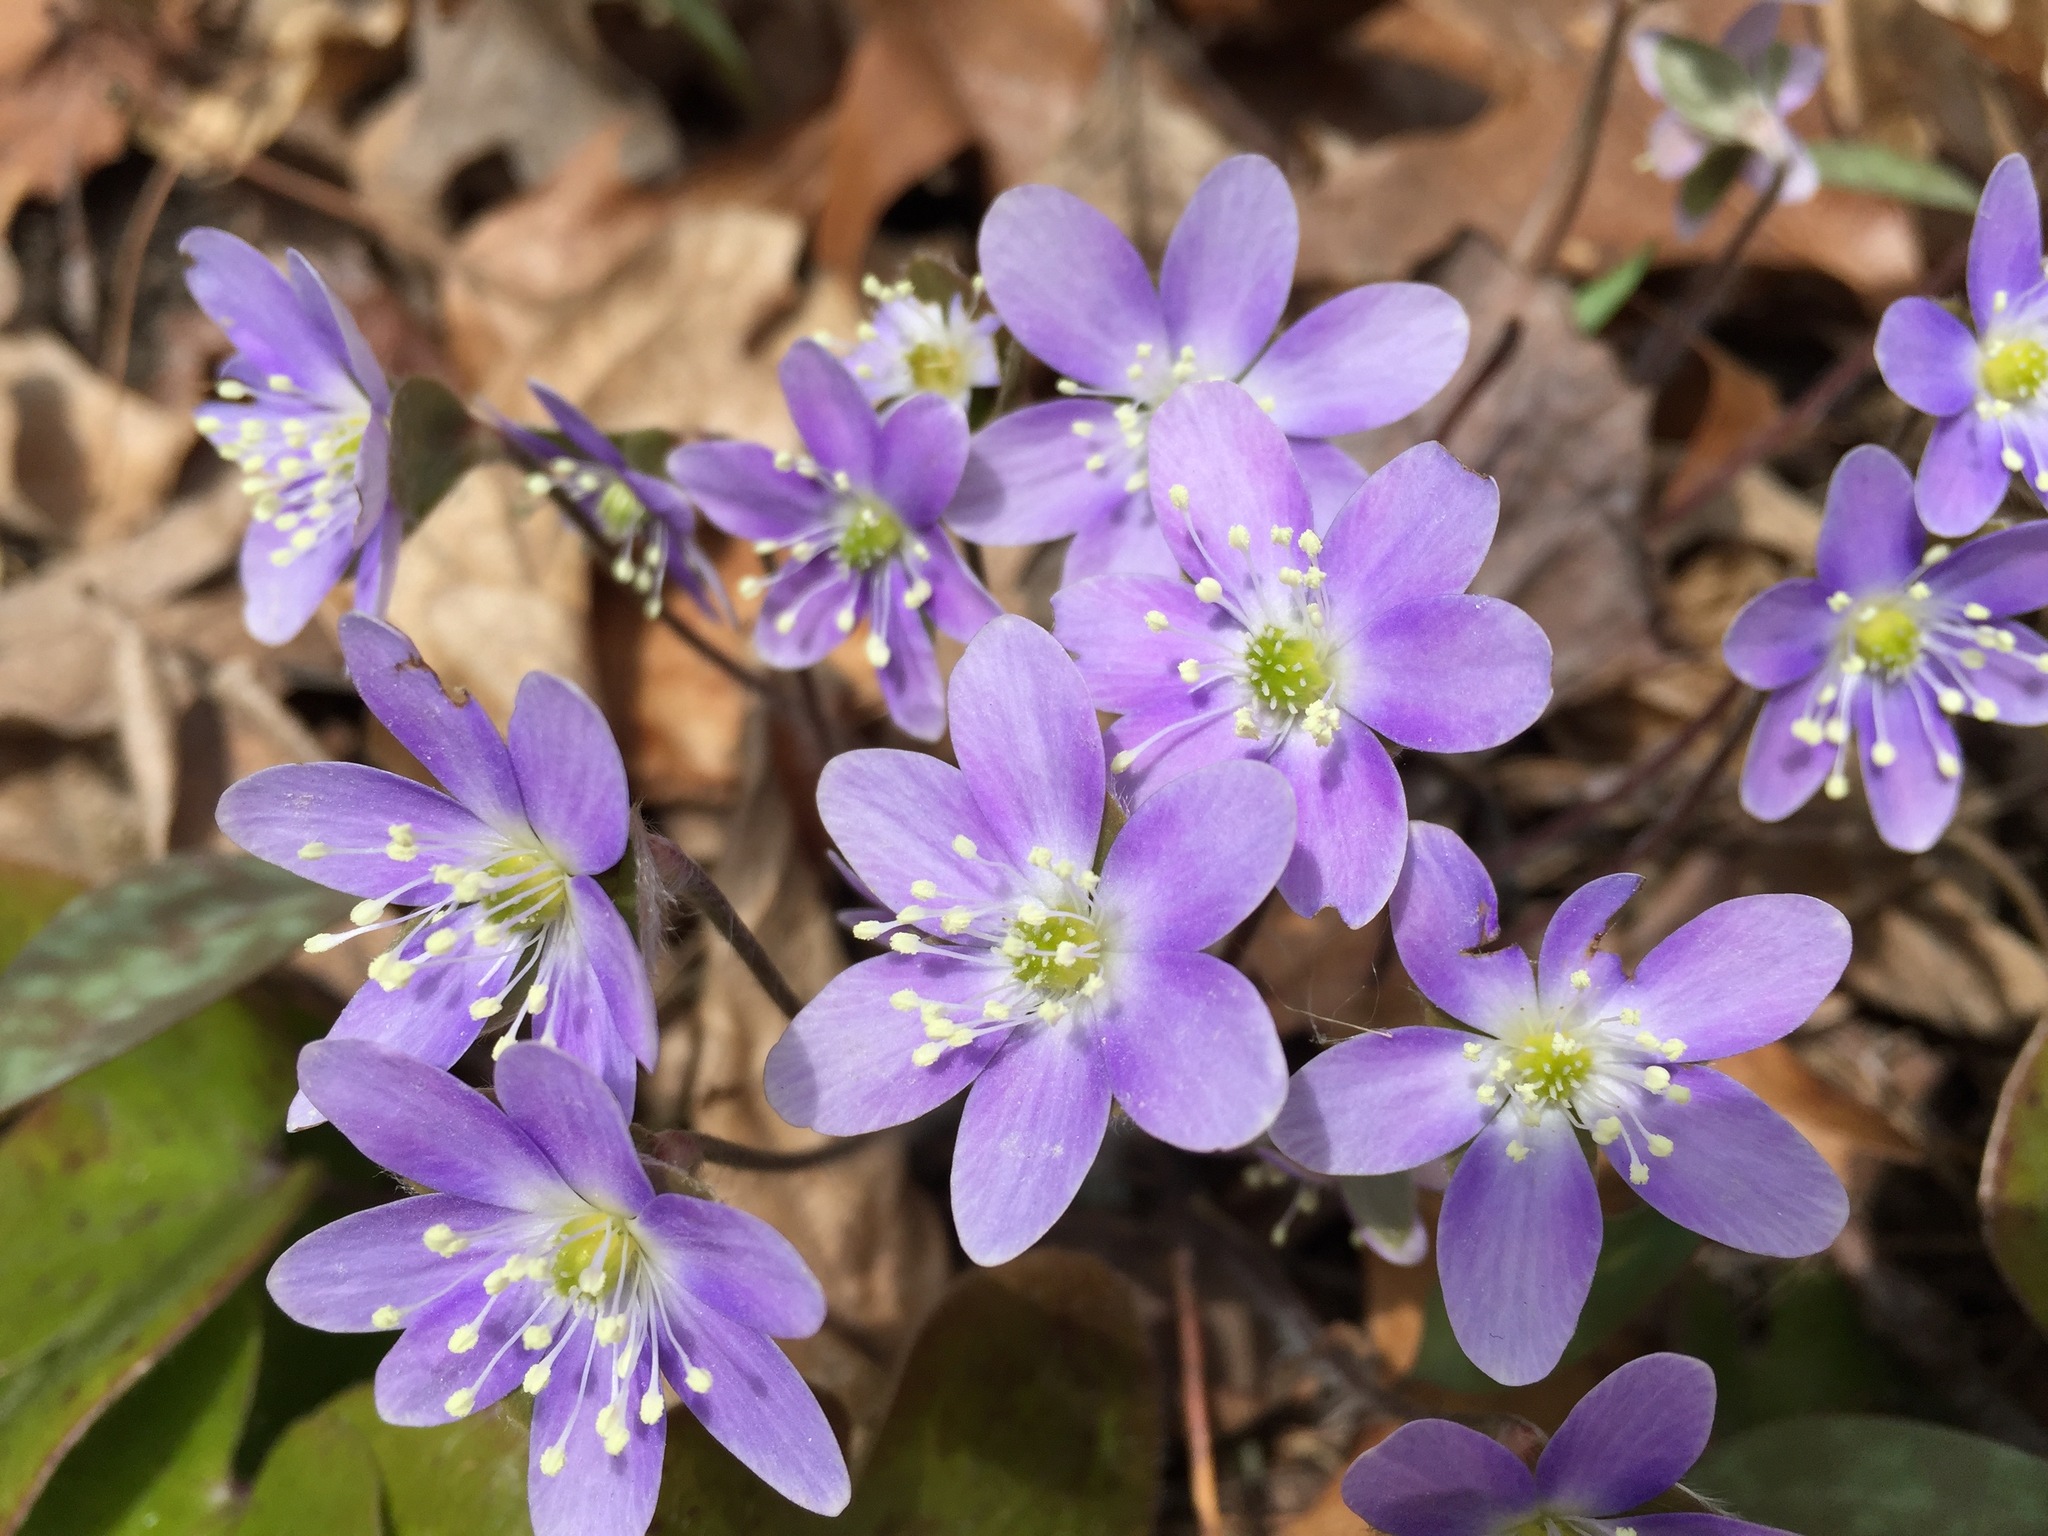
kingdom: Plantae
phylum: Tracheophyta
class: Magnoliopsida
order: Ranunculales
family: Ranunculaceae
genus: Hepatica
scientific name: Hepatica americana
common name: American hepatica
